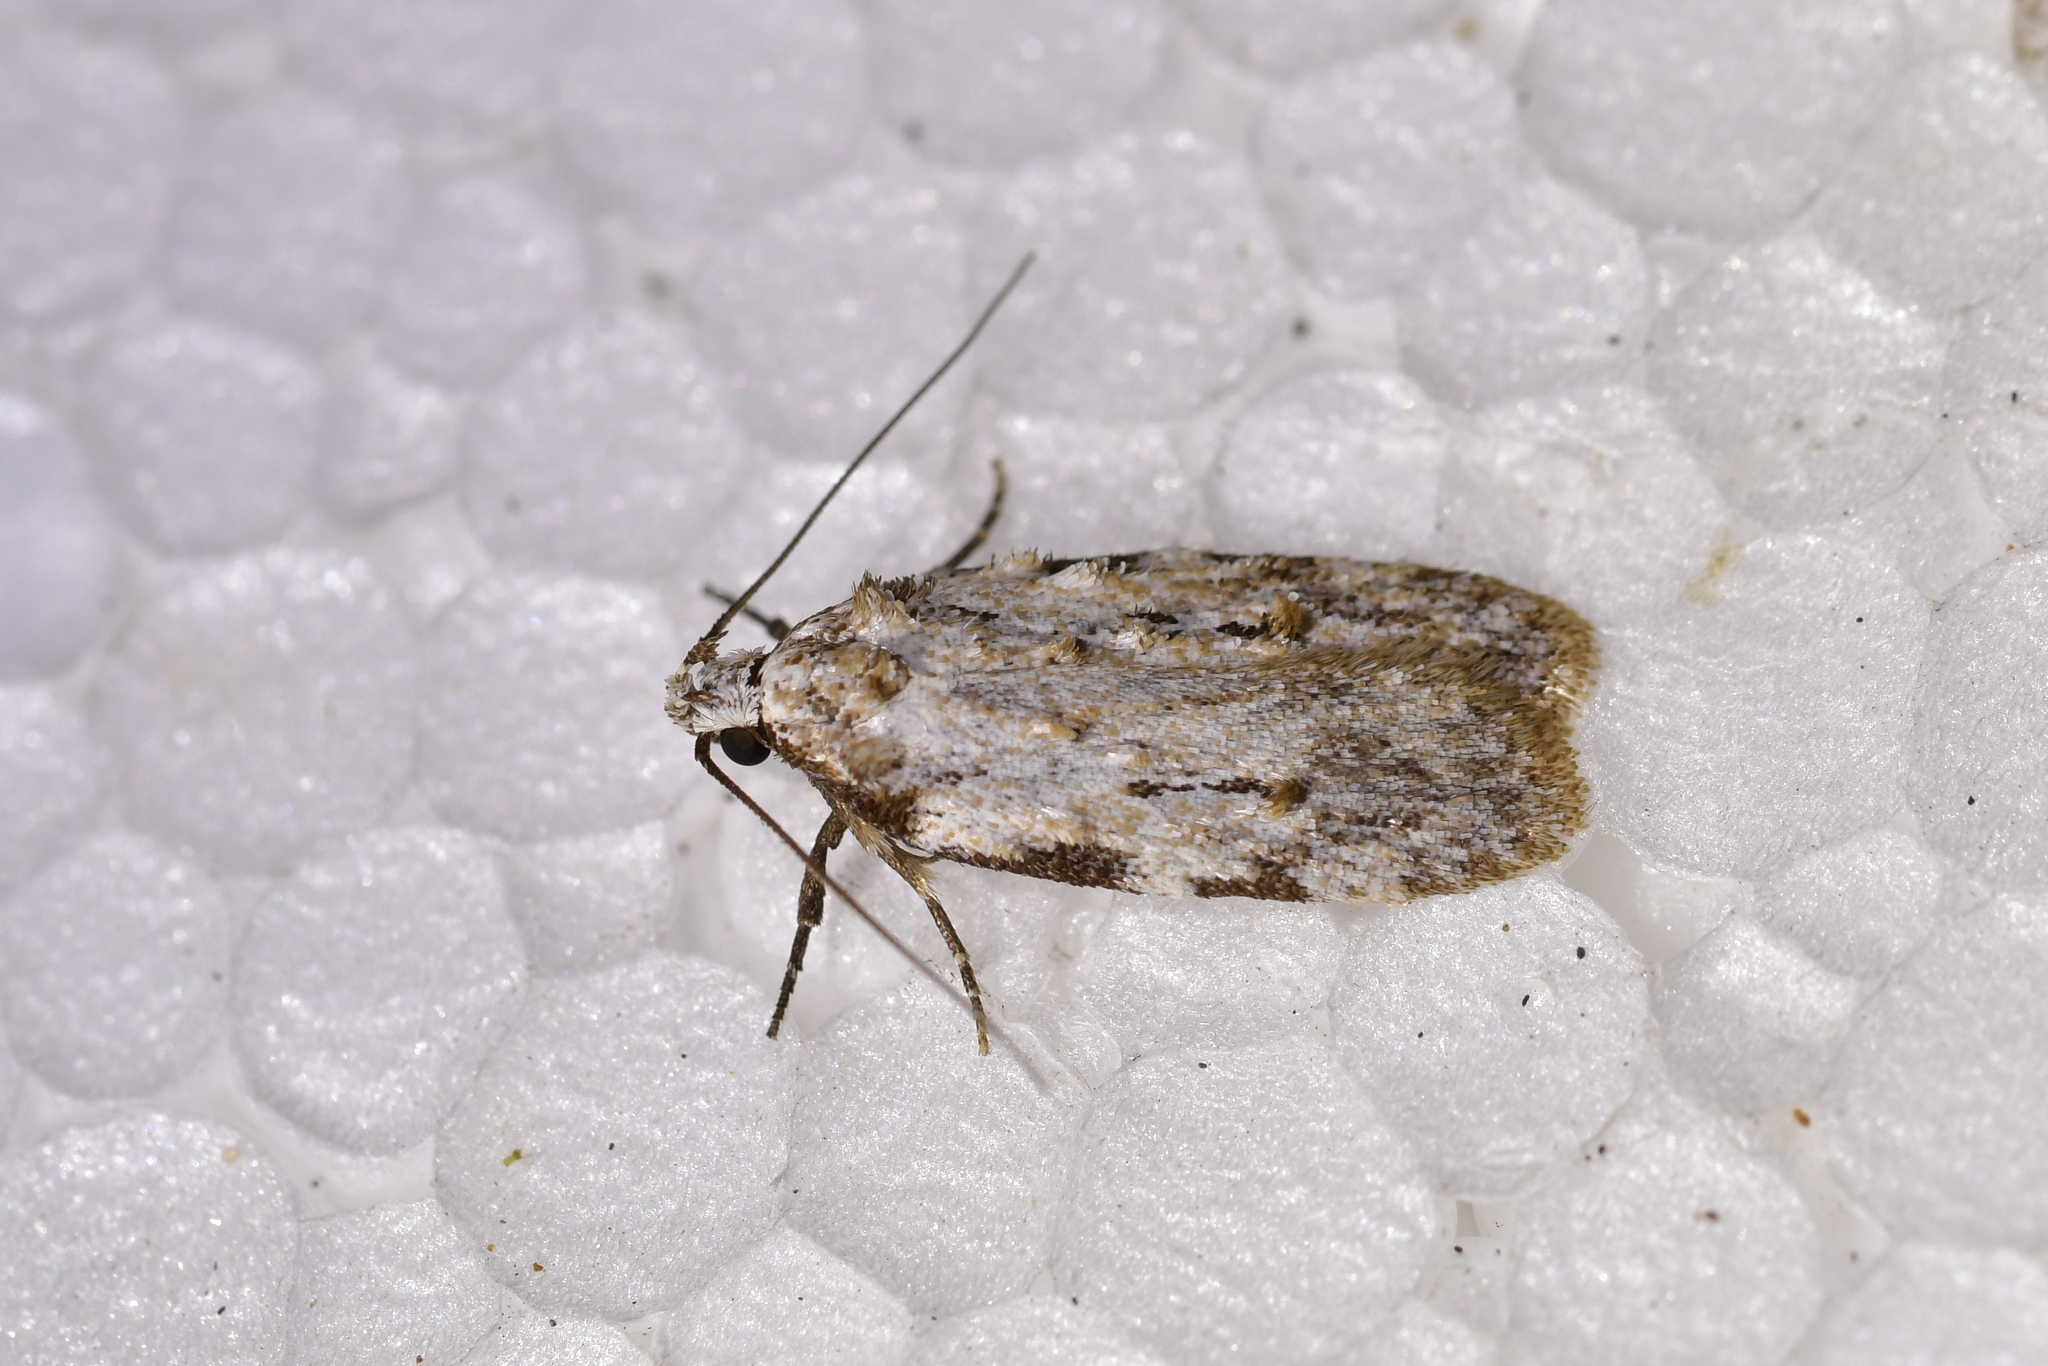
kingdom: Animalia
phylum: Arthropoda
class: Insecta
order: Lepidoptera
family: Oecophoridae
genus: Izatha
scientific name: Izatha balanophora
